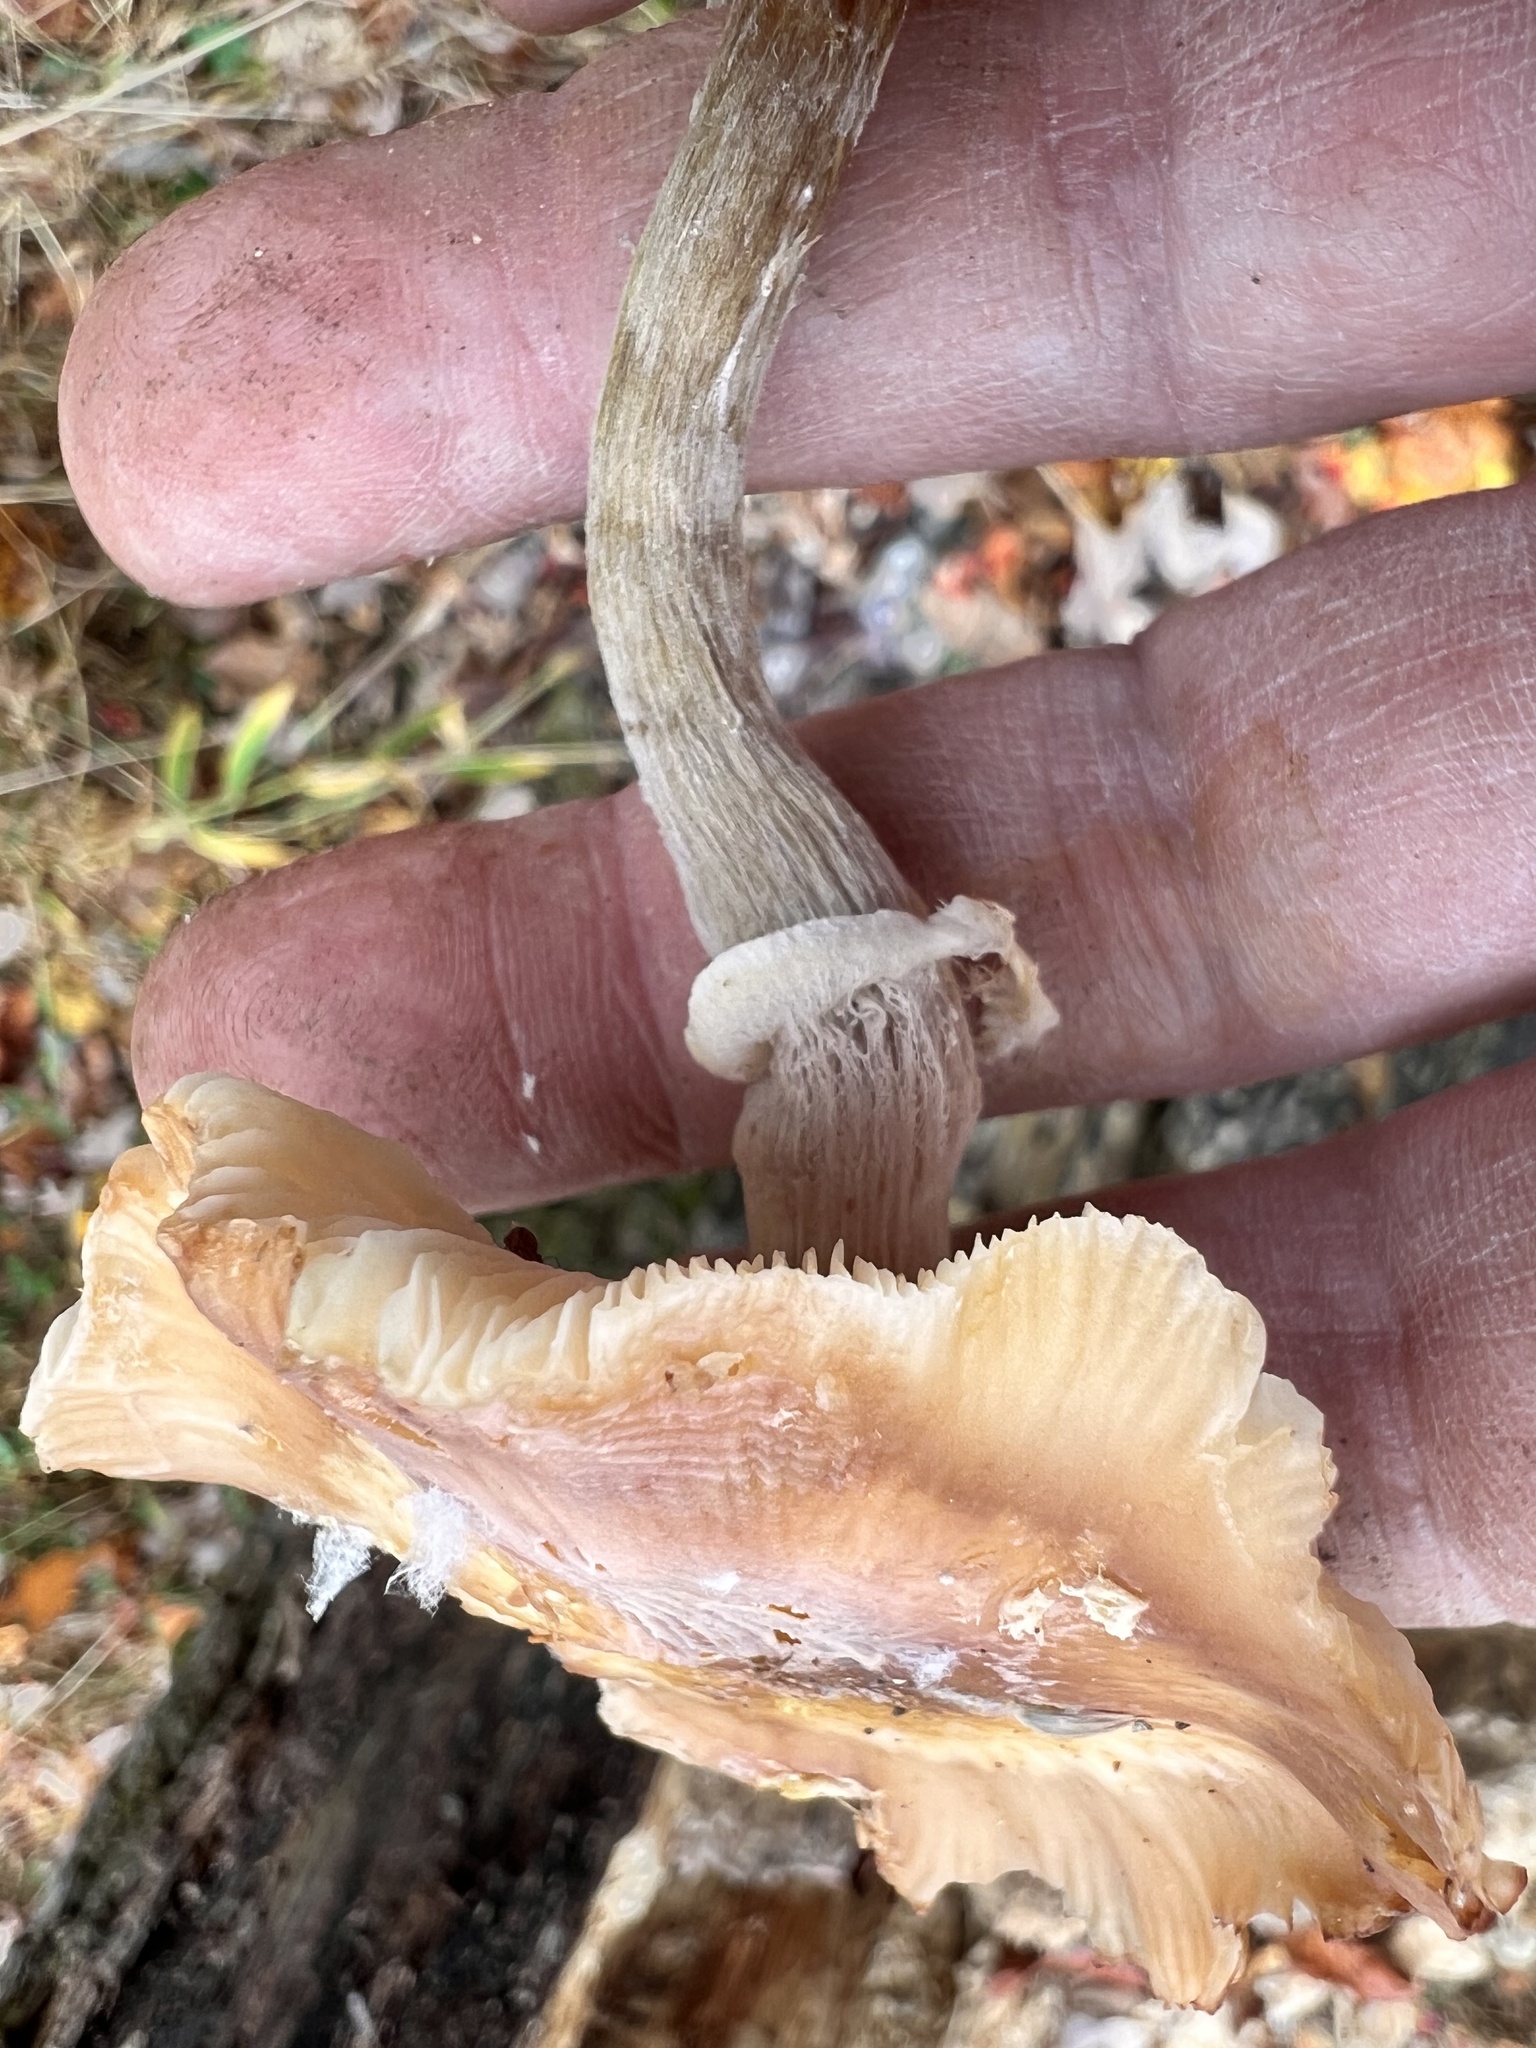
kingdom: Fungi
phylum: Basidiomycota
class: Agaricomycetes
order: Agaricales
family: Physalacriaceae
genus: Armillaria
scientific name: Armillaria mellea
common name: Honey fungus
